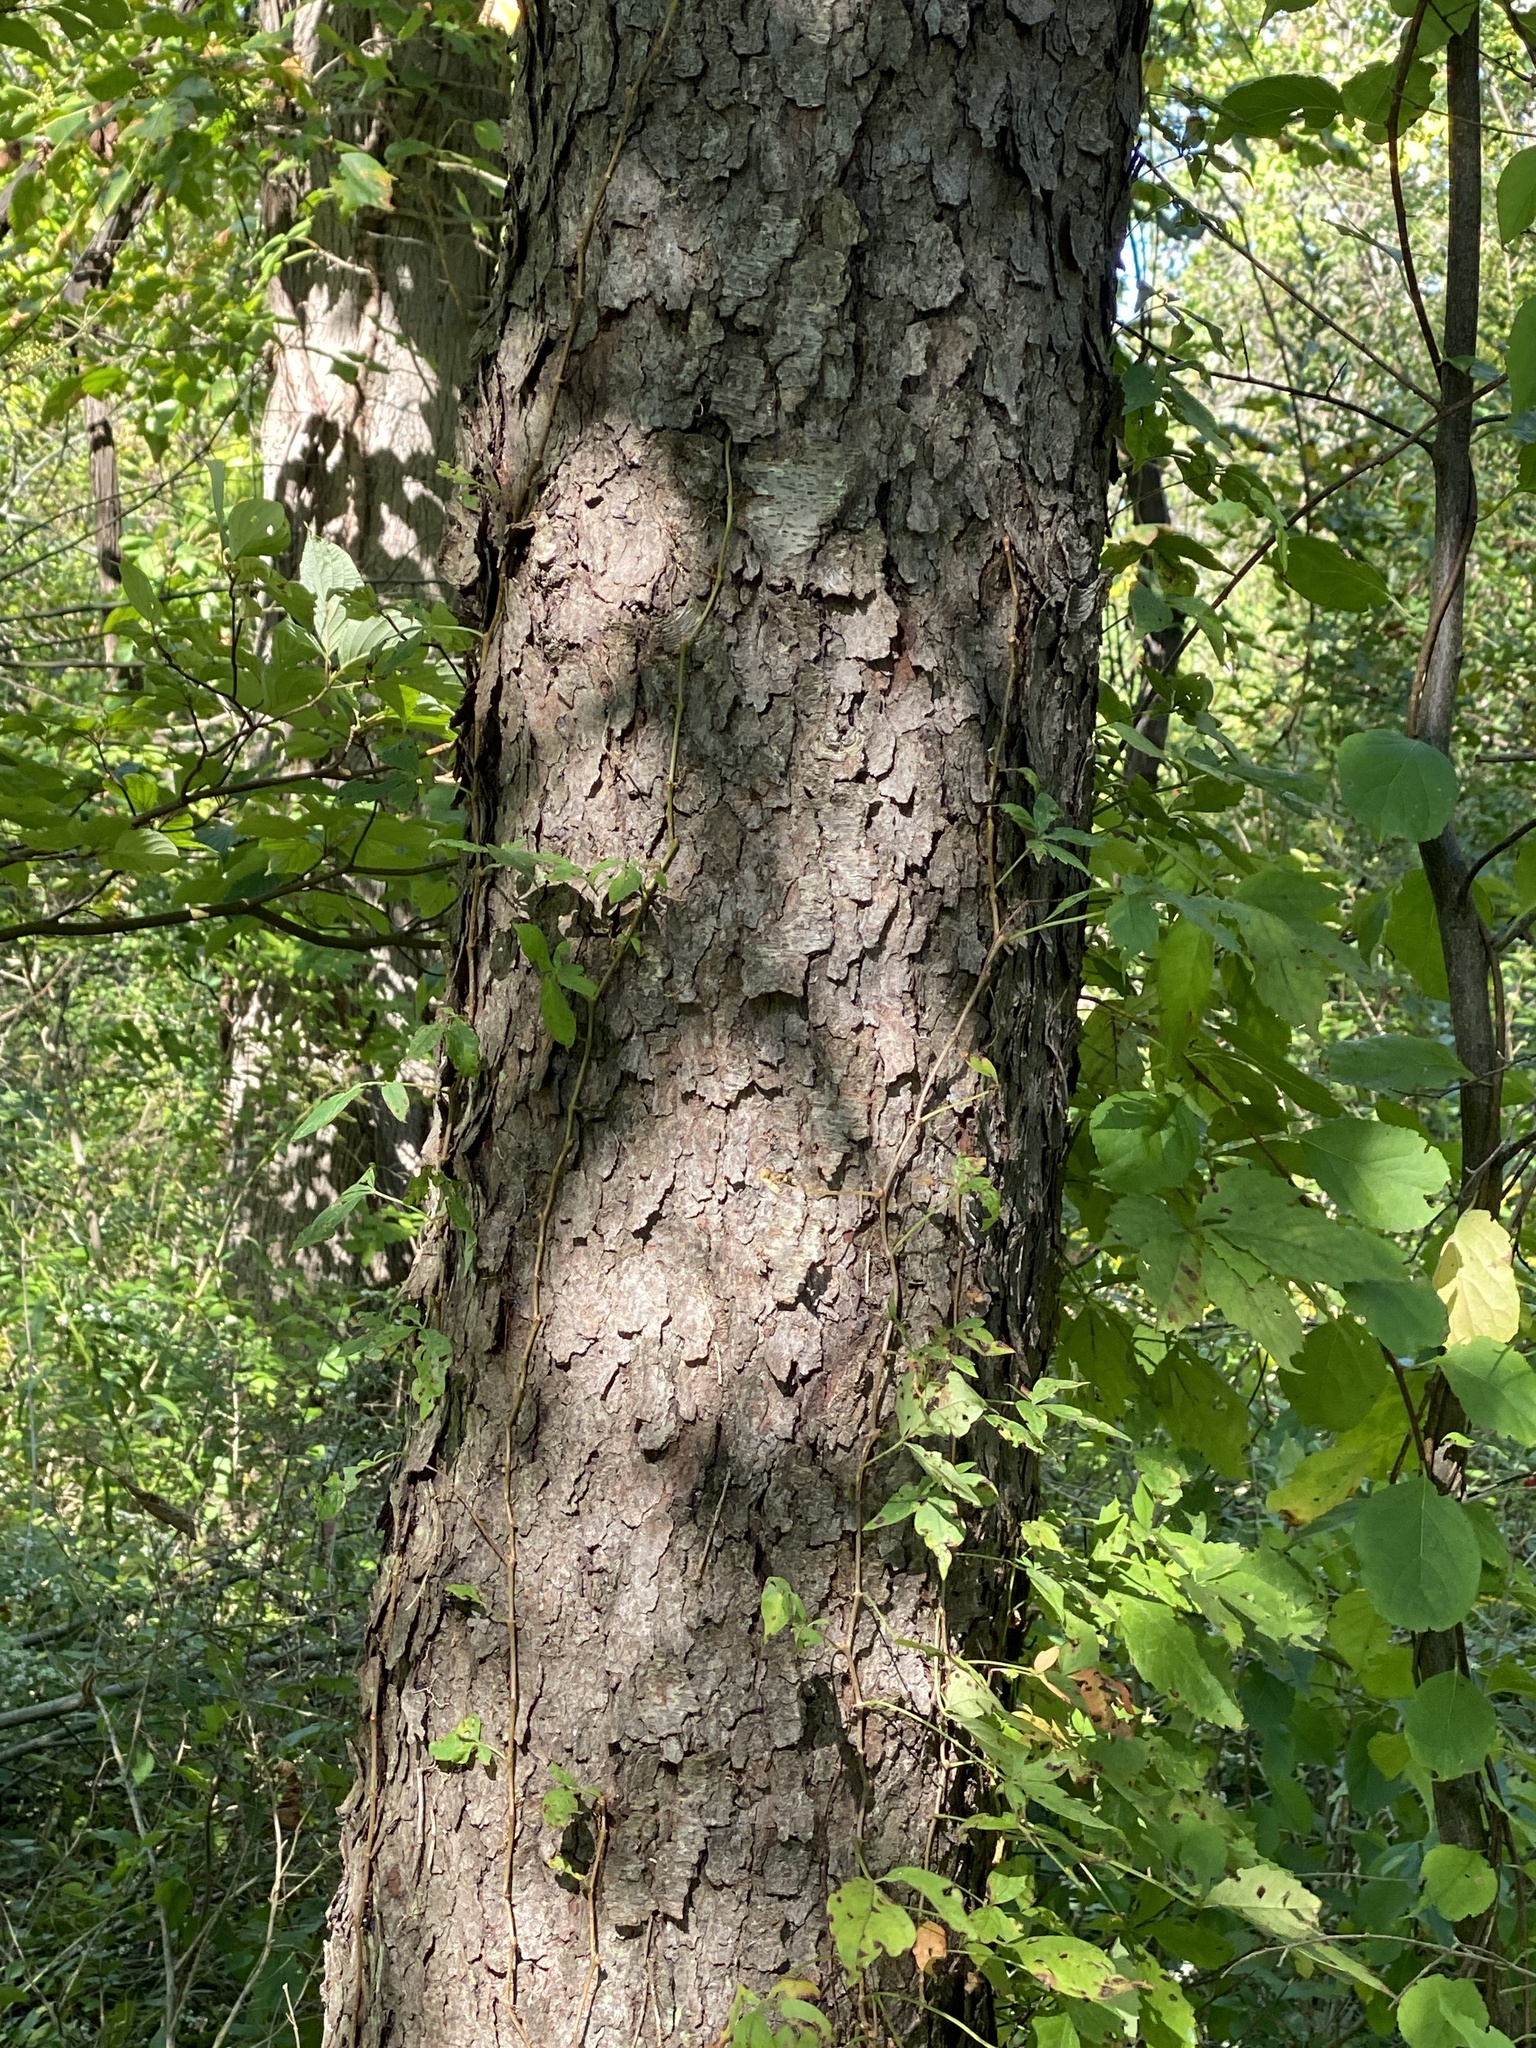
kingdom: Plantae
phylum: Tracheophyta
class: Magnoliopsida
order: Rosales
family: Rosaceae
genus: Prunus
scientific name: Prunus serotina
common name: Black cherry
